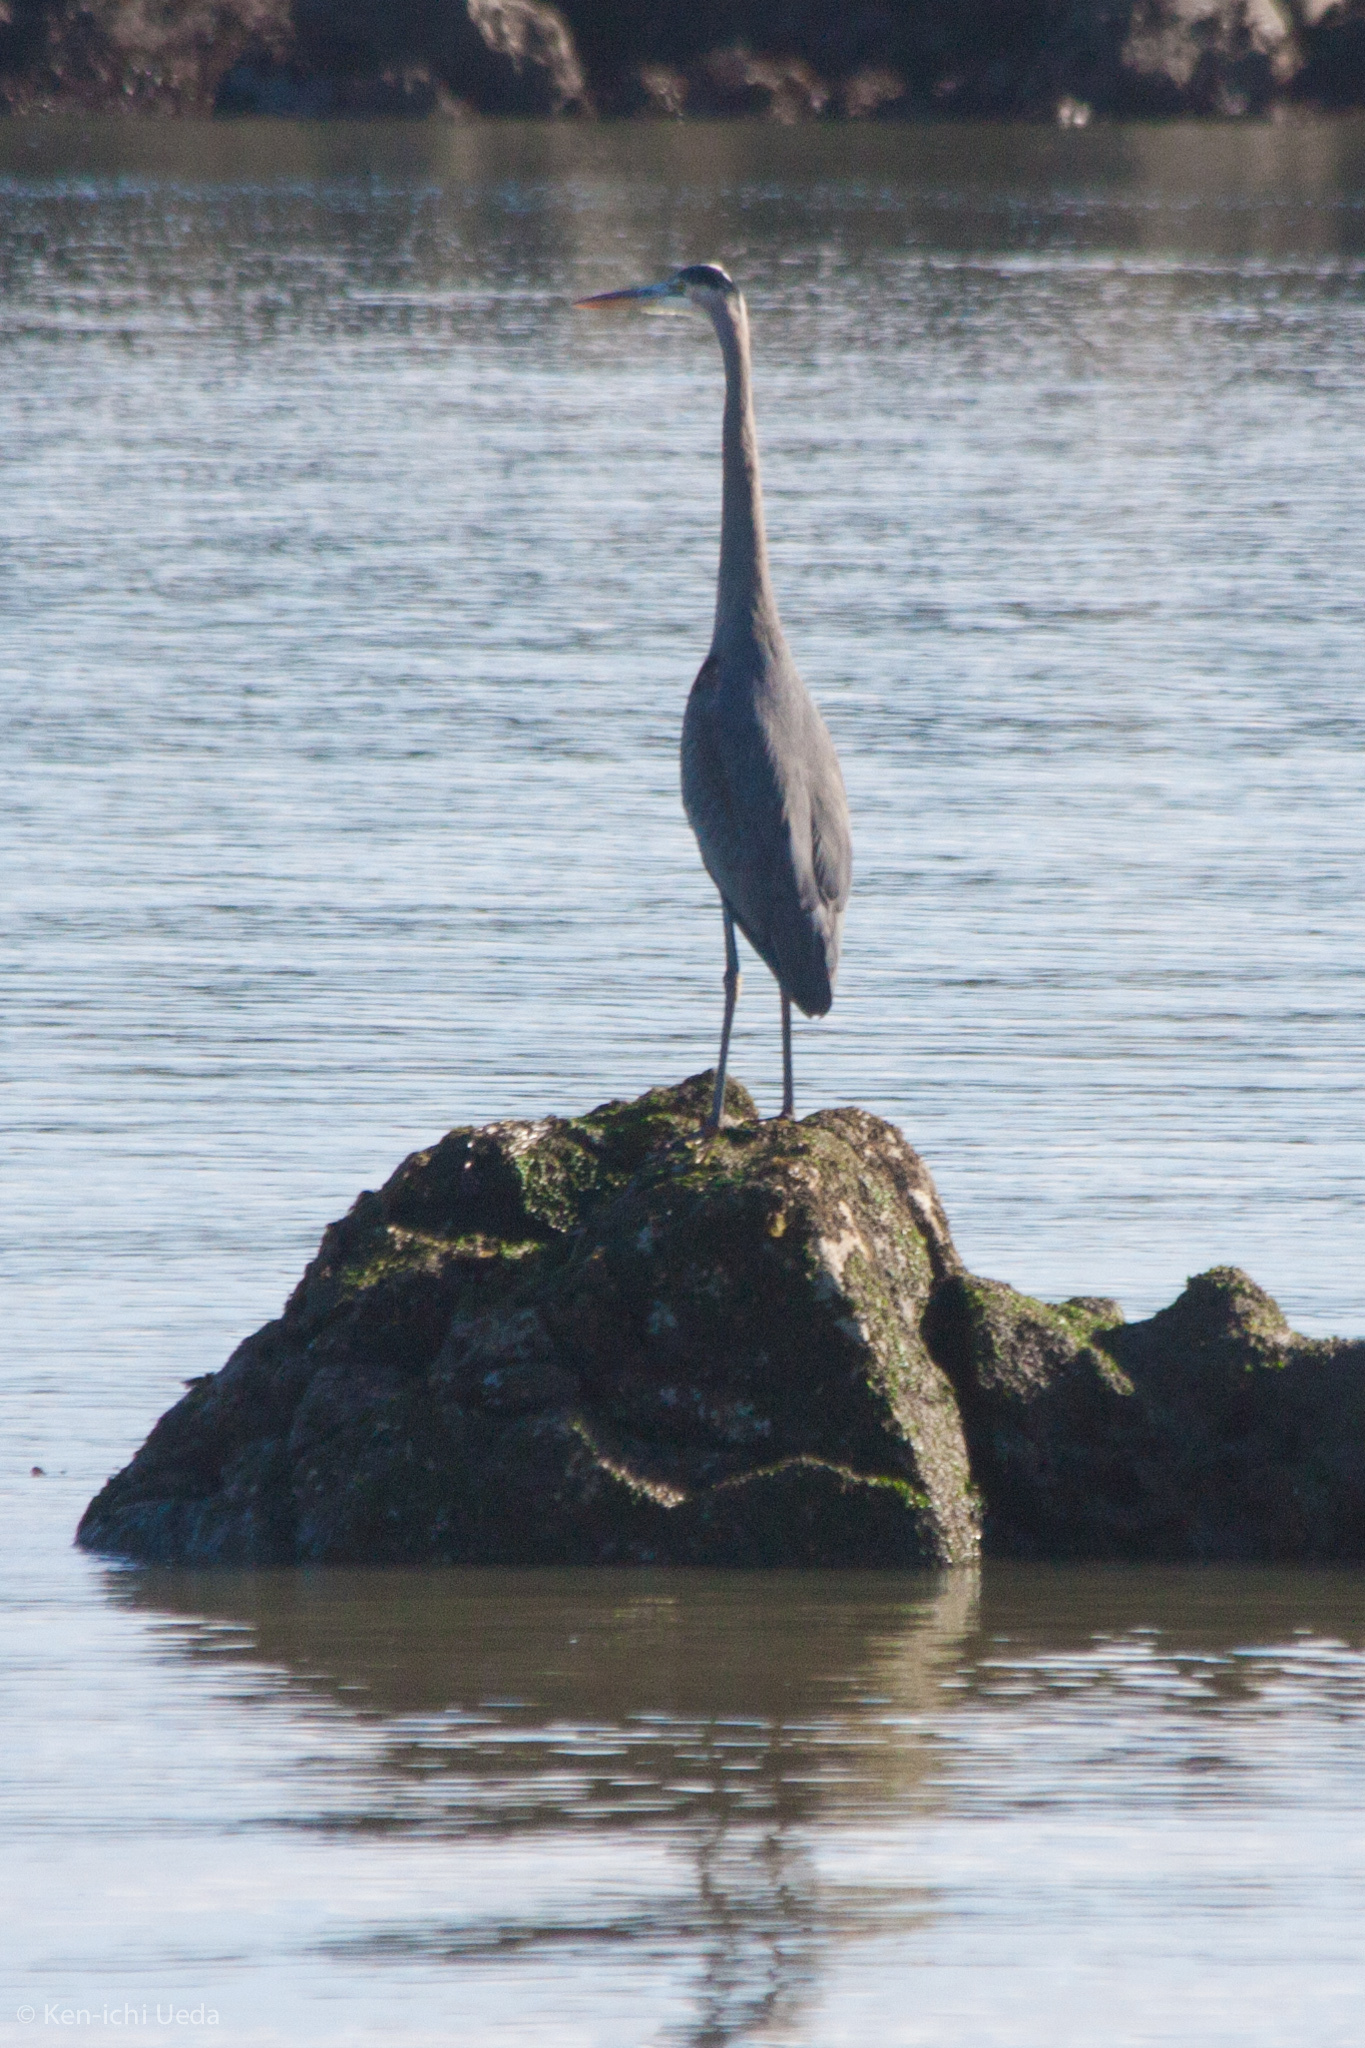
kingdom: Animalia
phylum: Chordata
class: Aves
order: Pelecaniformes
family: Ardeidae
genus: Ardea
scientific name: Ardea herodias
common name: Great blue heron
